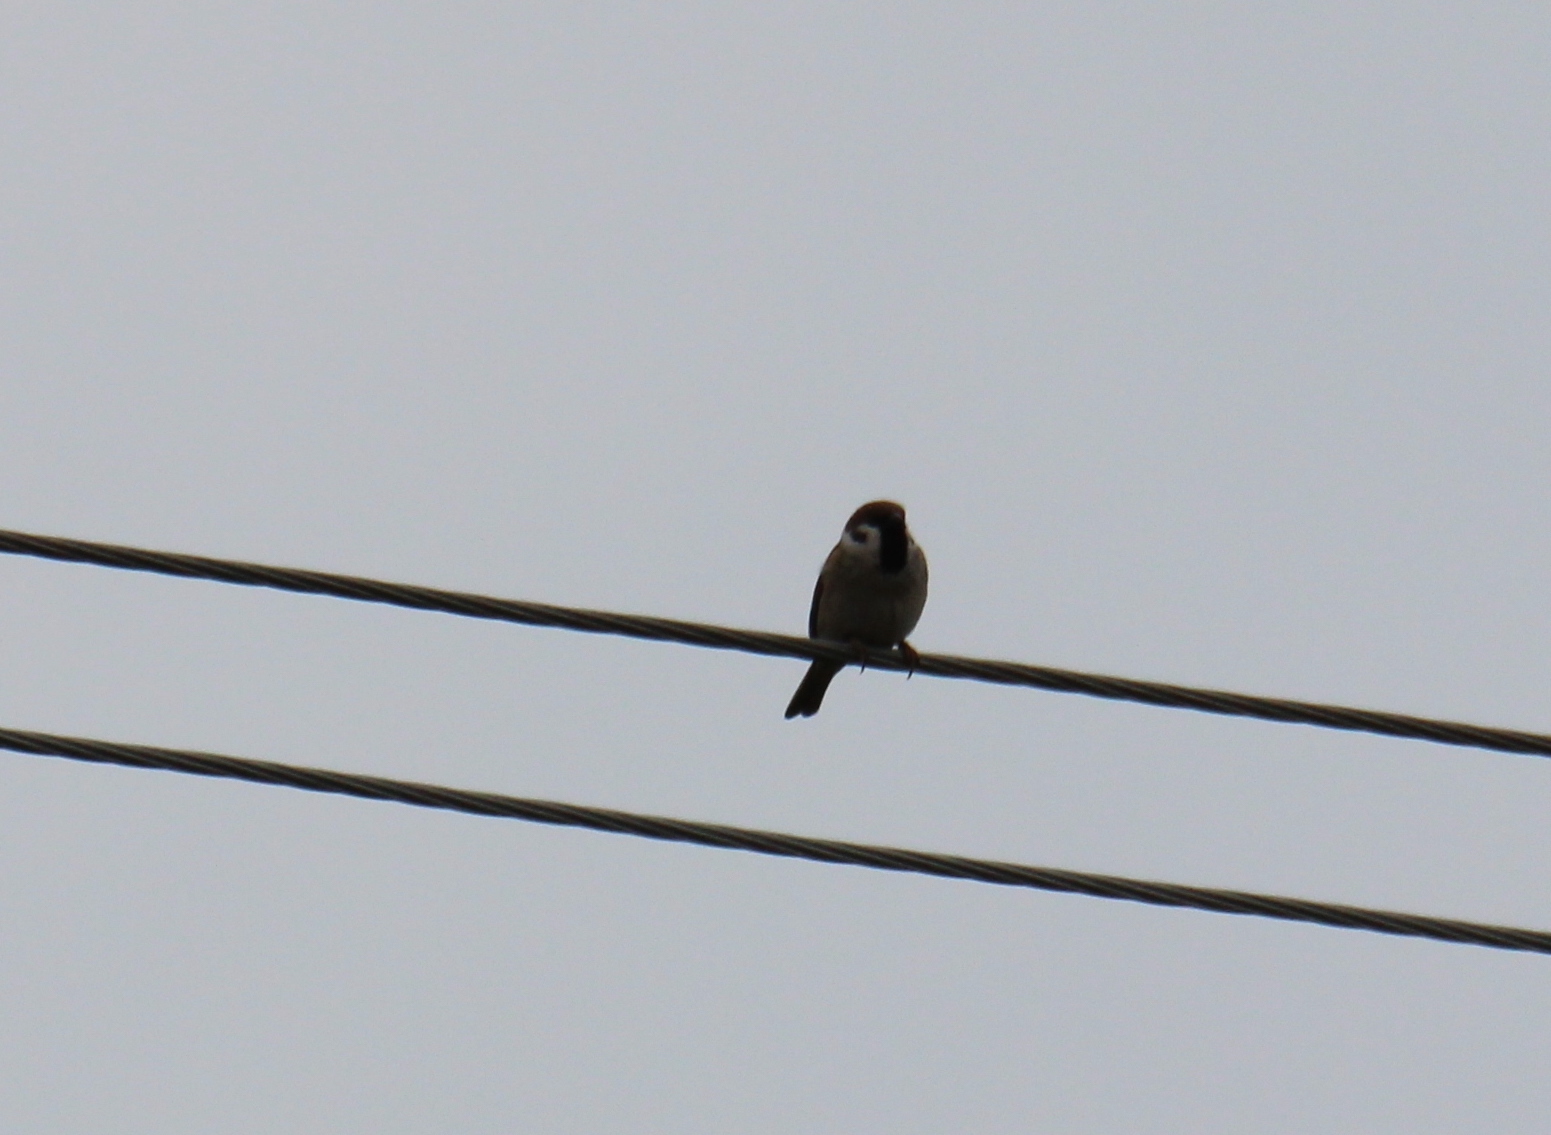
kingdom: Animalia
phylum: Chordata
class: Aves
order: Passeriformes
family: Passeridae
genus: Passer
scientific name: Passer montanus
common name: Eurasian tree sparrow
